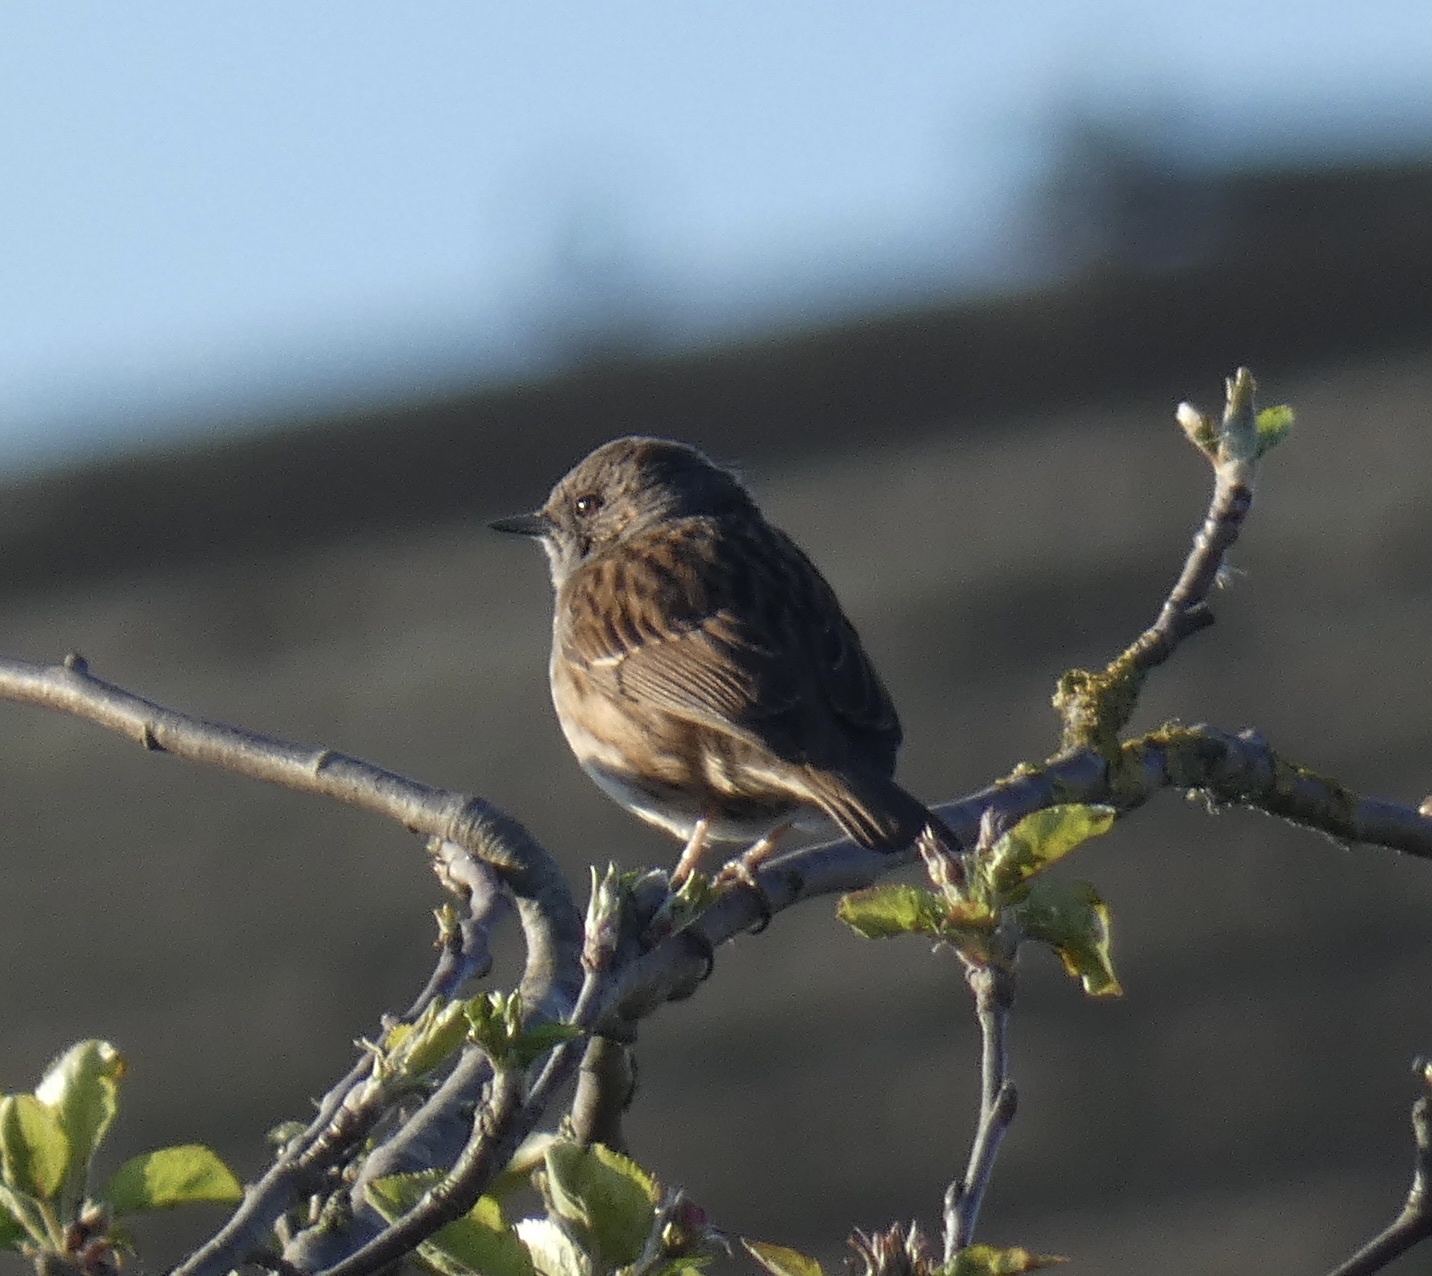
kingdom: Animalia
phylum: Chordata
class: Aves
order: Passeriformes
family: Prunellidae
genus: Prunella
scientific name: Prunella modularis
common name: Dunnock
